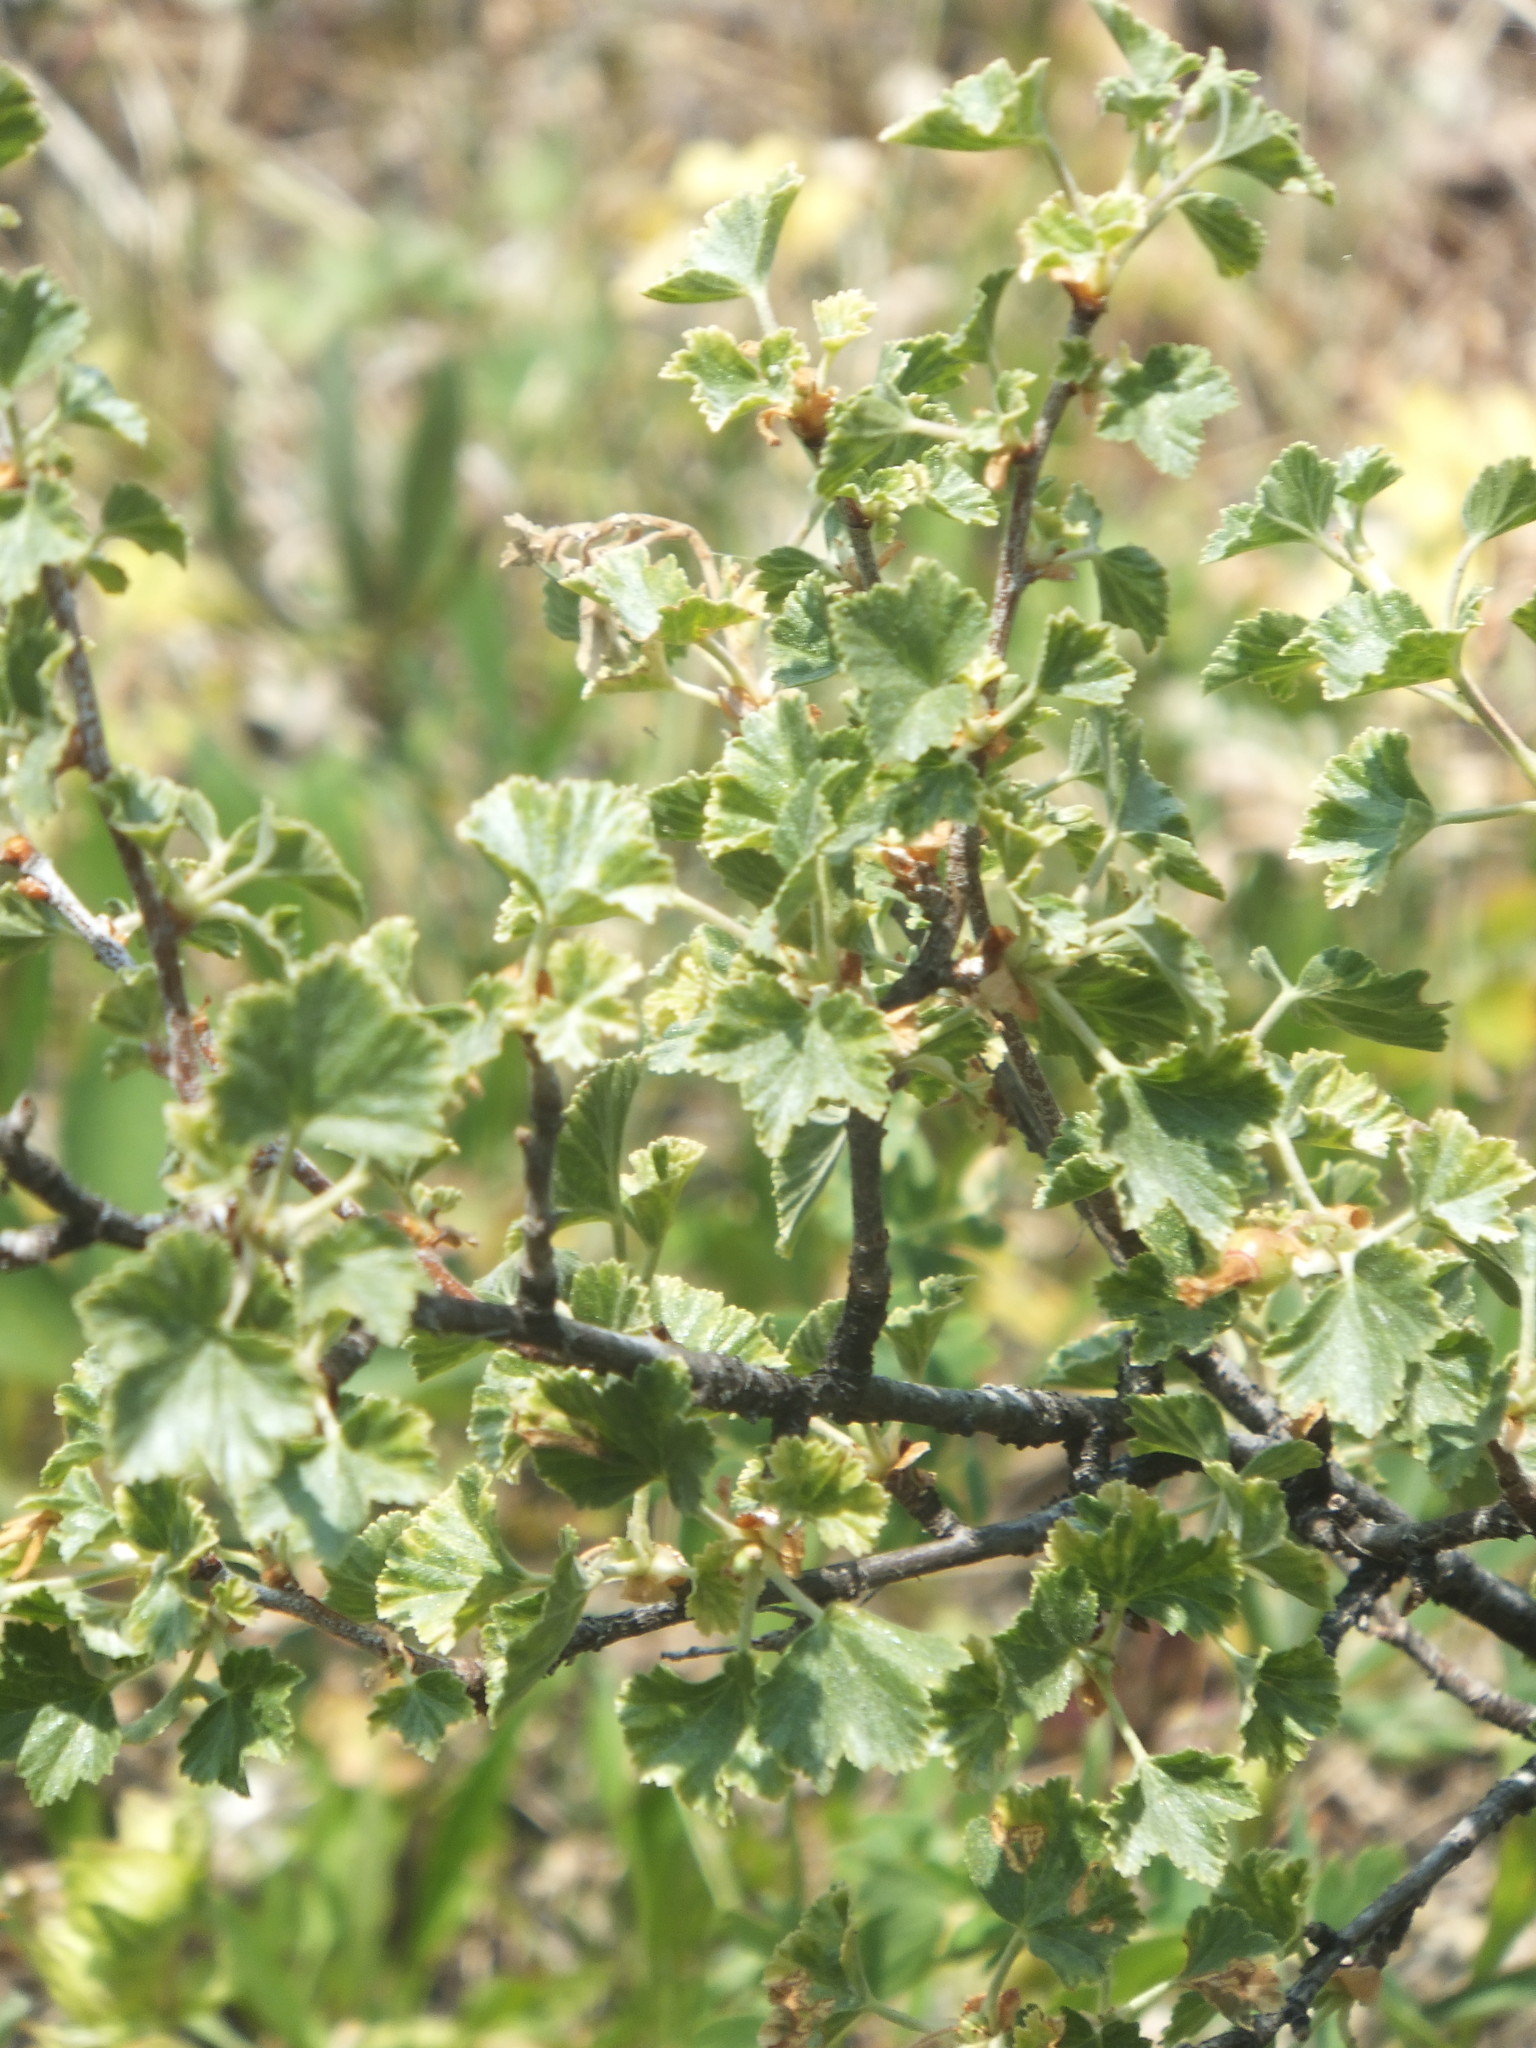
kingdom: Plantae
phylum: Tracheophyta
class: Magnoliopsida
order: Saxifragales
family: Grossulariaceae
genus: Ribes
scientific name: Ribes cereum
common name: Wax currant
